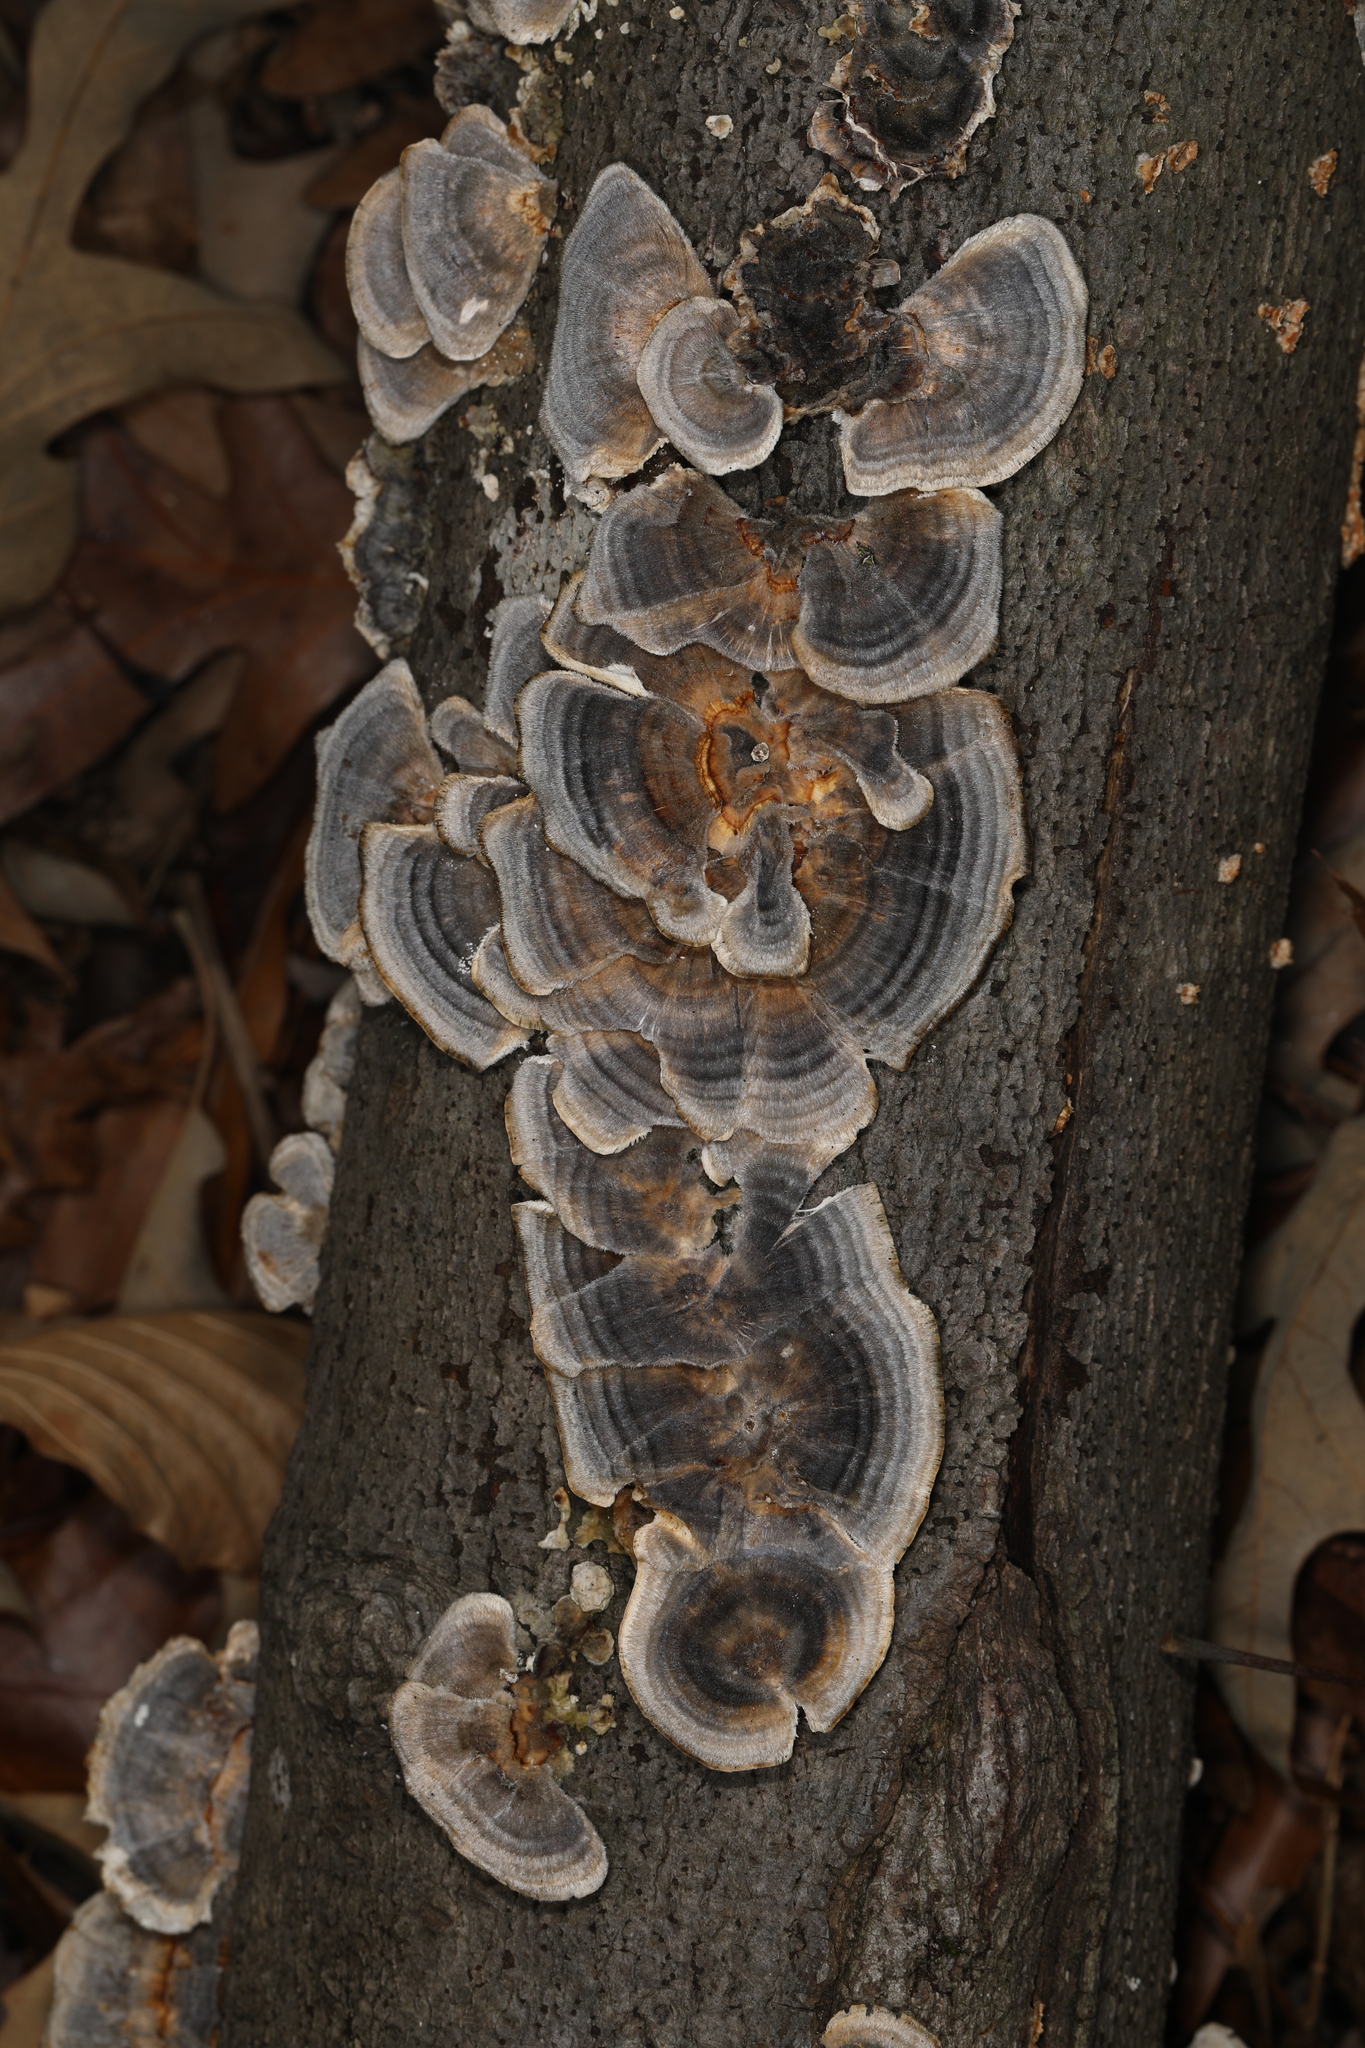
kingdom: Fungi
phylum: Basidiomycota
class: Agaricomycetes
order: Polyporales
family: Polyporaceae
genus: Trametes
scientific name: Trametes versicolor
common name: Turkeytail
